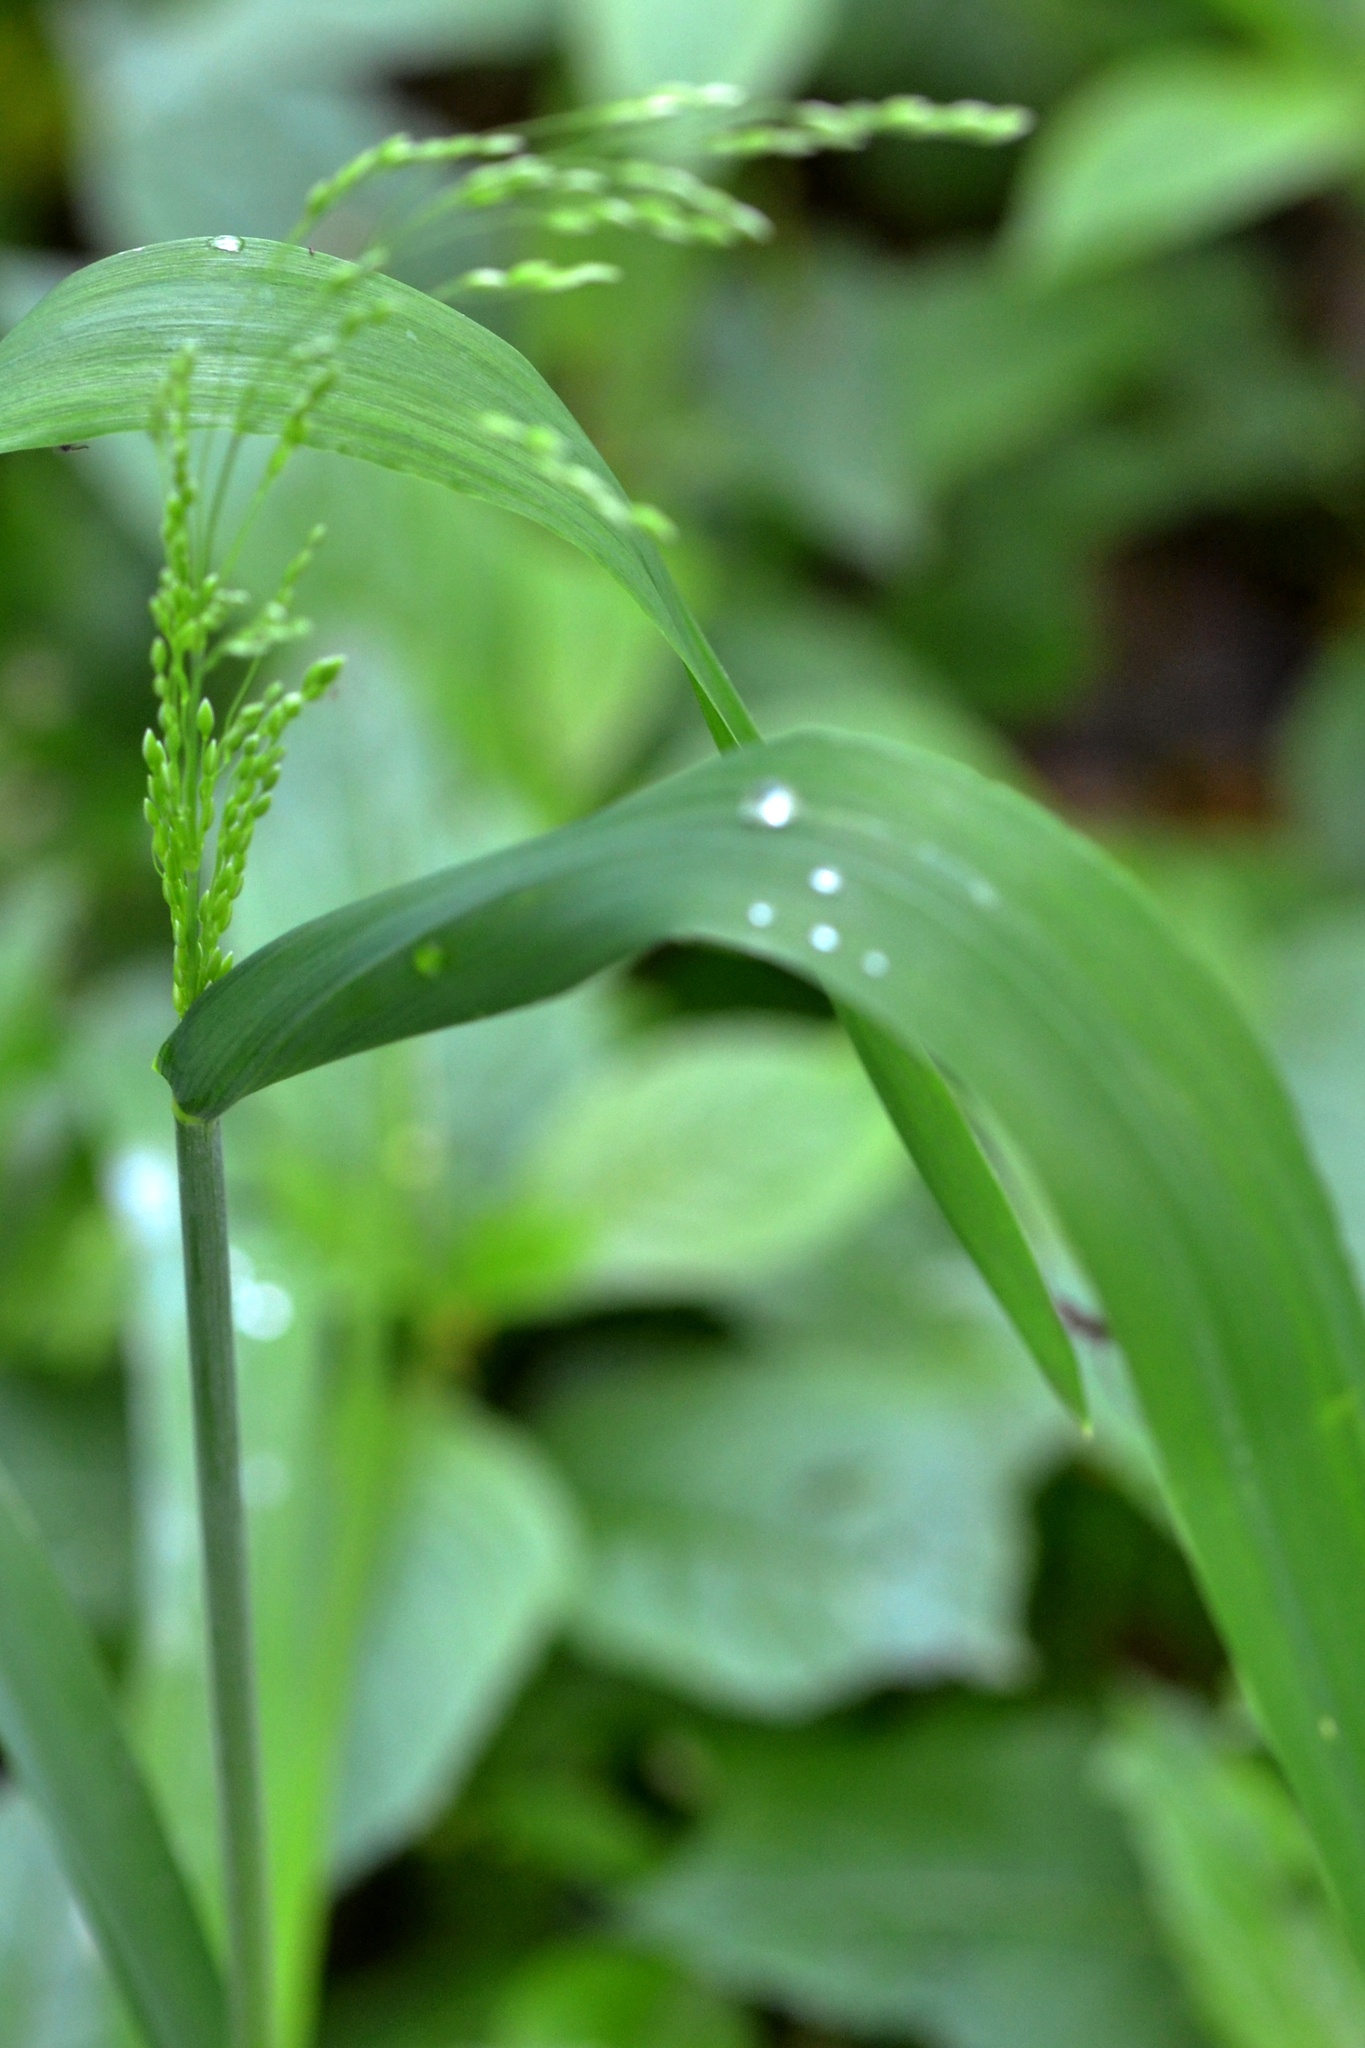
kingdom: Plantae
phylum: Tracheophyta
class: Liliopsida
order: Poales
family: Poaceae
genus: Milium
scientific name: Milium effusum
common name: Wood millet
